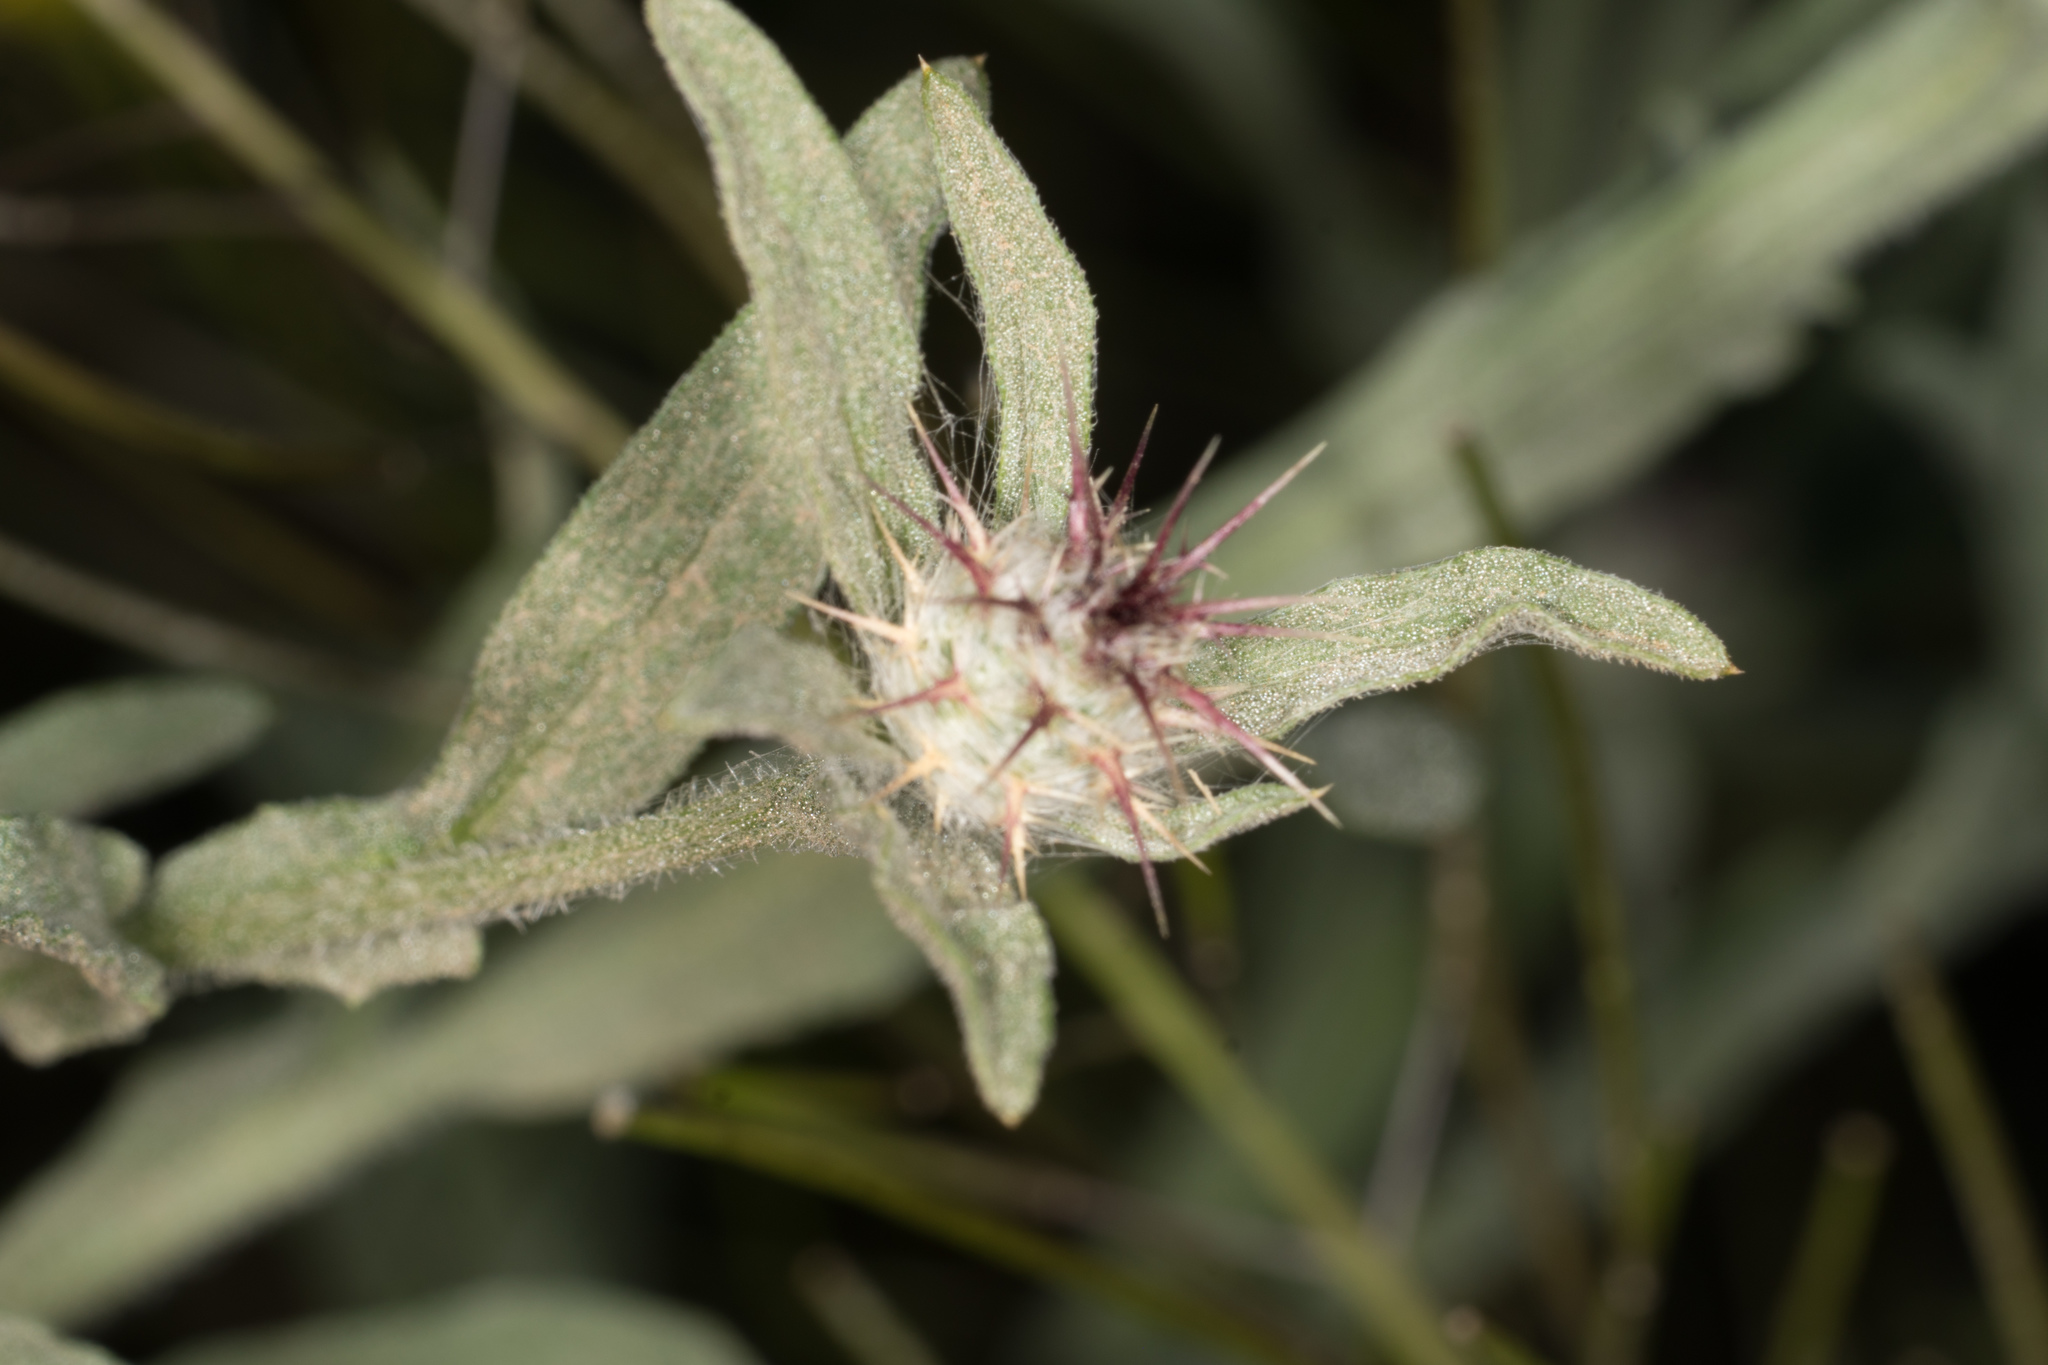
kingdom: Plantae
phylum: Tracheophyta
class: Magnoliopsida
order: Asterales
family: Asteraceae
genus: Centaurea
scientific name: Centaurea melitensis
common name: Maltese star-thistle
